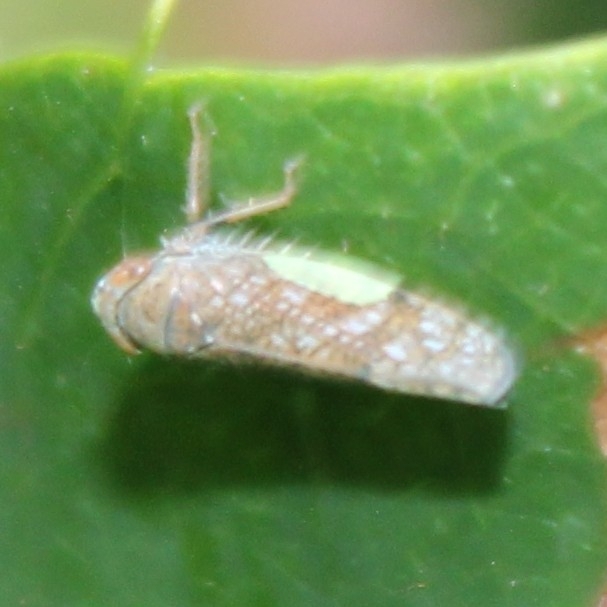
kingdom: Animalia
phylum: Arthropoda
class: Insecta
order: Hemiptera
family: Cicadellidae
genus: Orientus
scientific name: Orientus ishidae
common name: Japanese leafhopper
